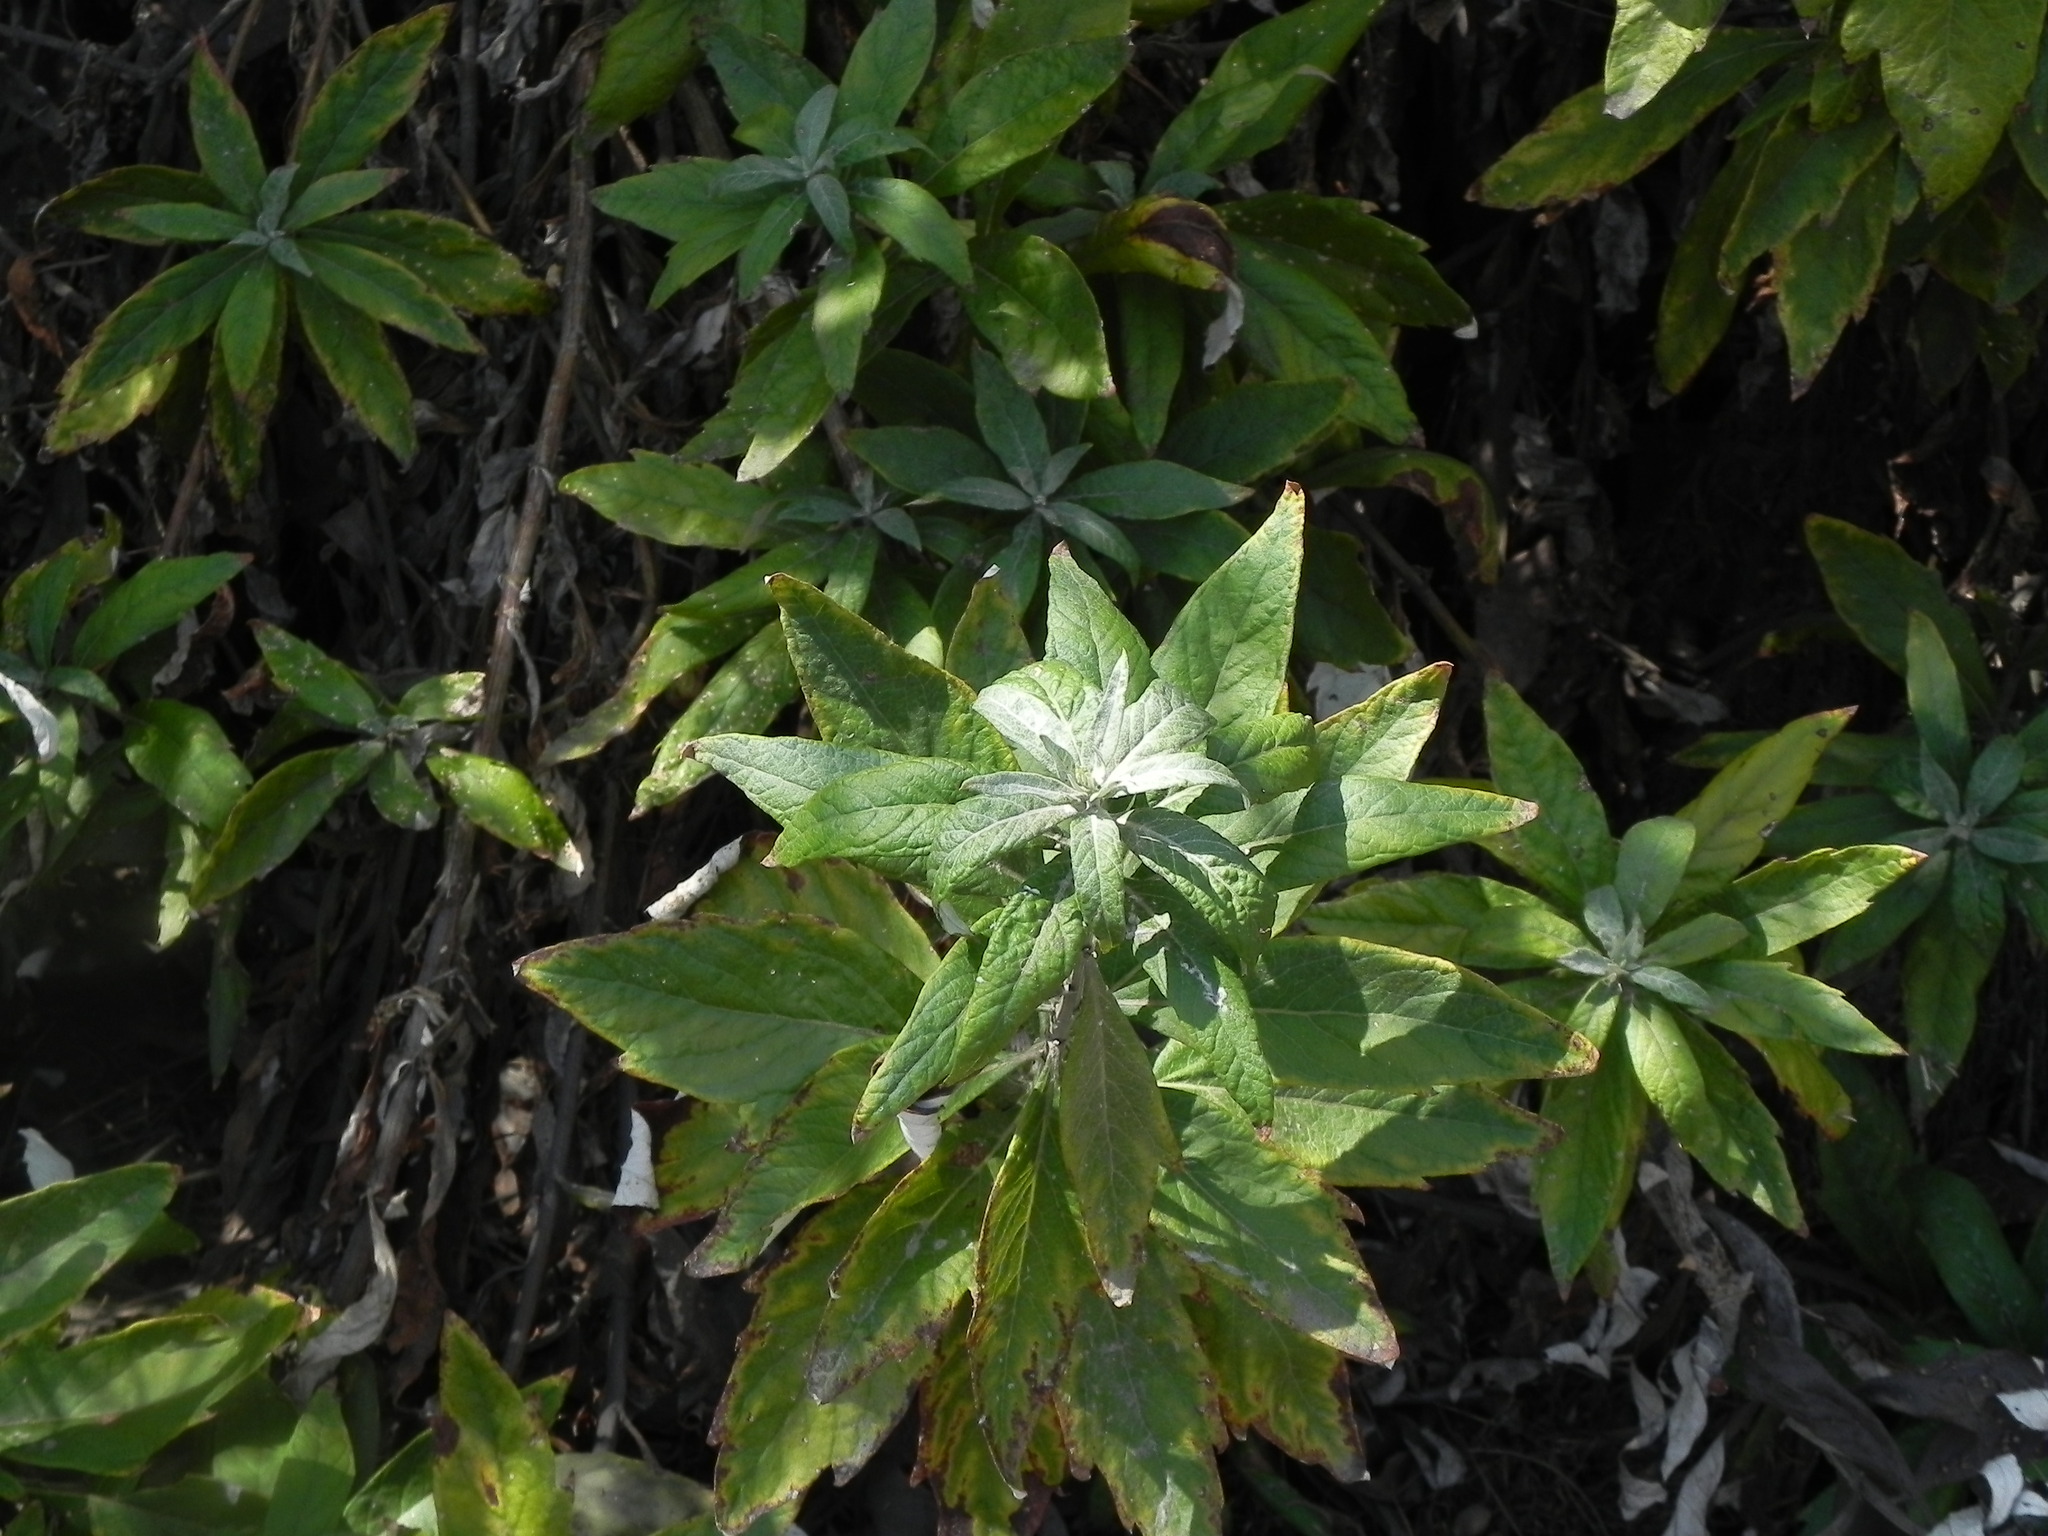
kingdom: Plantae
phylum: Tracheophyta
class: Magnoliopsida
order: Asterales
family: Asteraceae
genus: Artemisia
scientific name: Artemisia douglasiana
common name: Northwest mugwort
